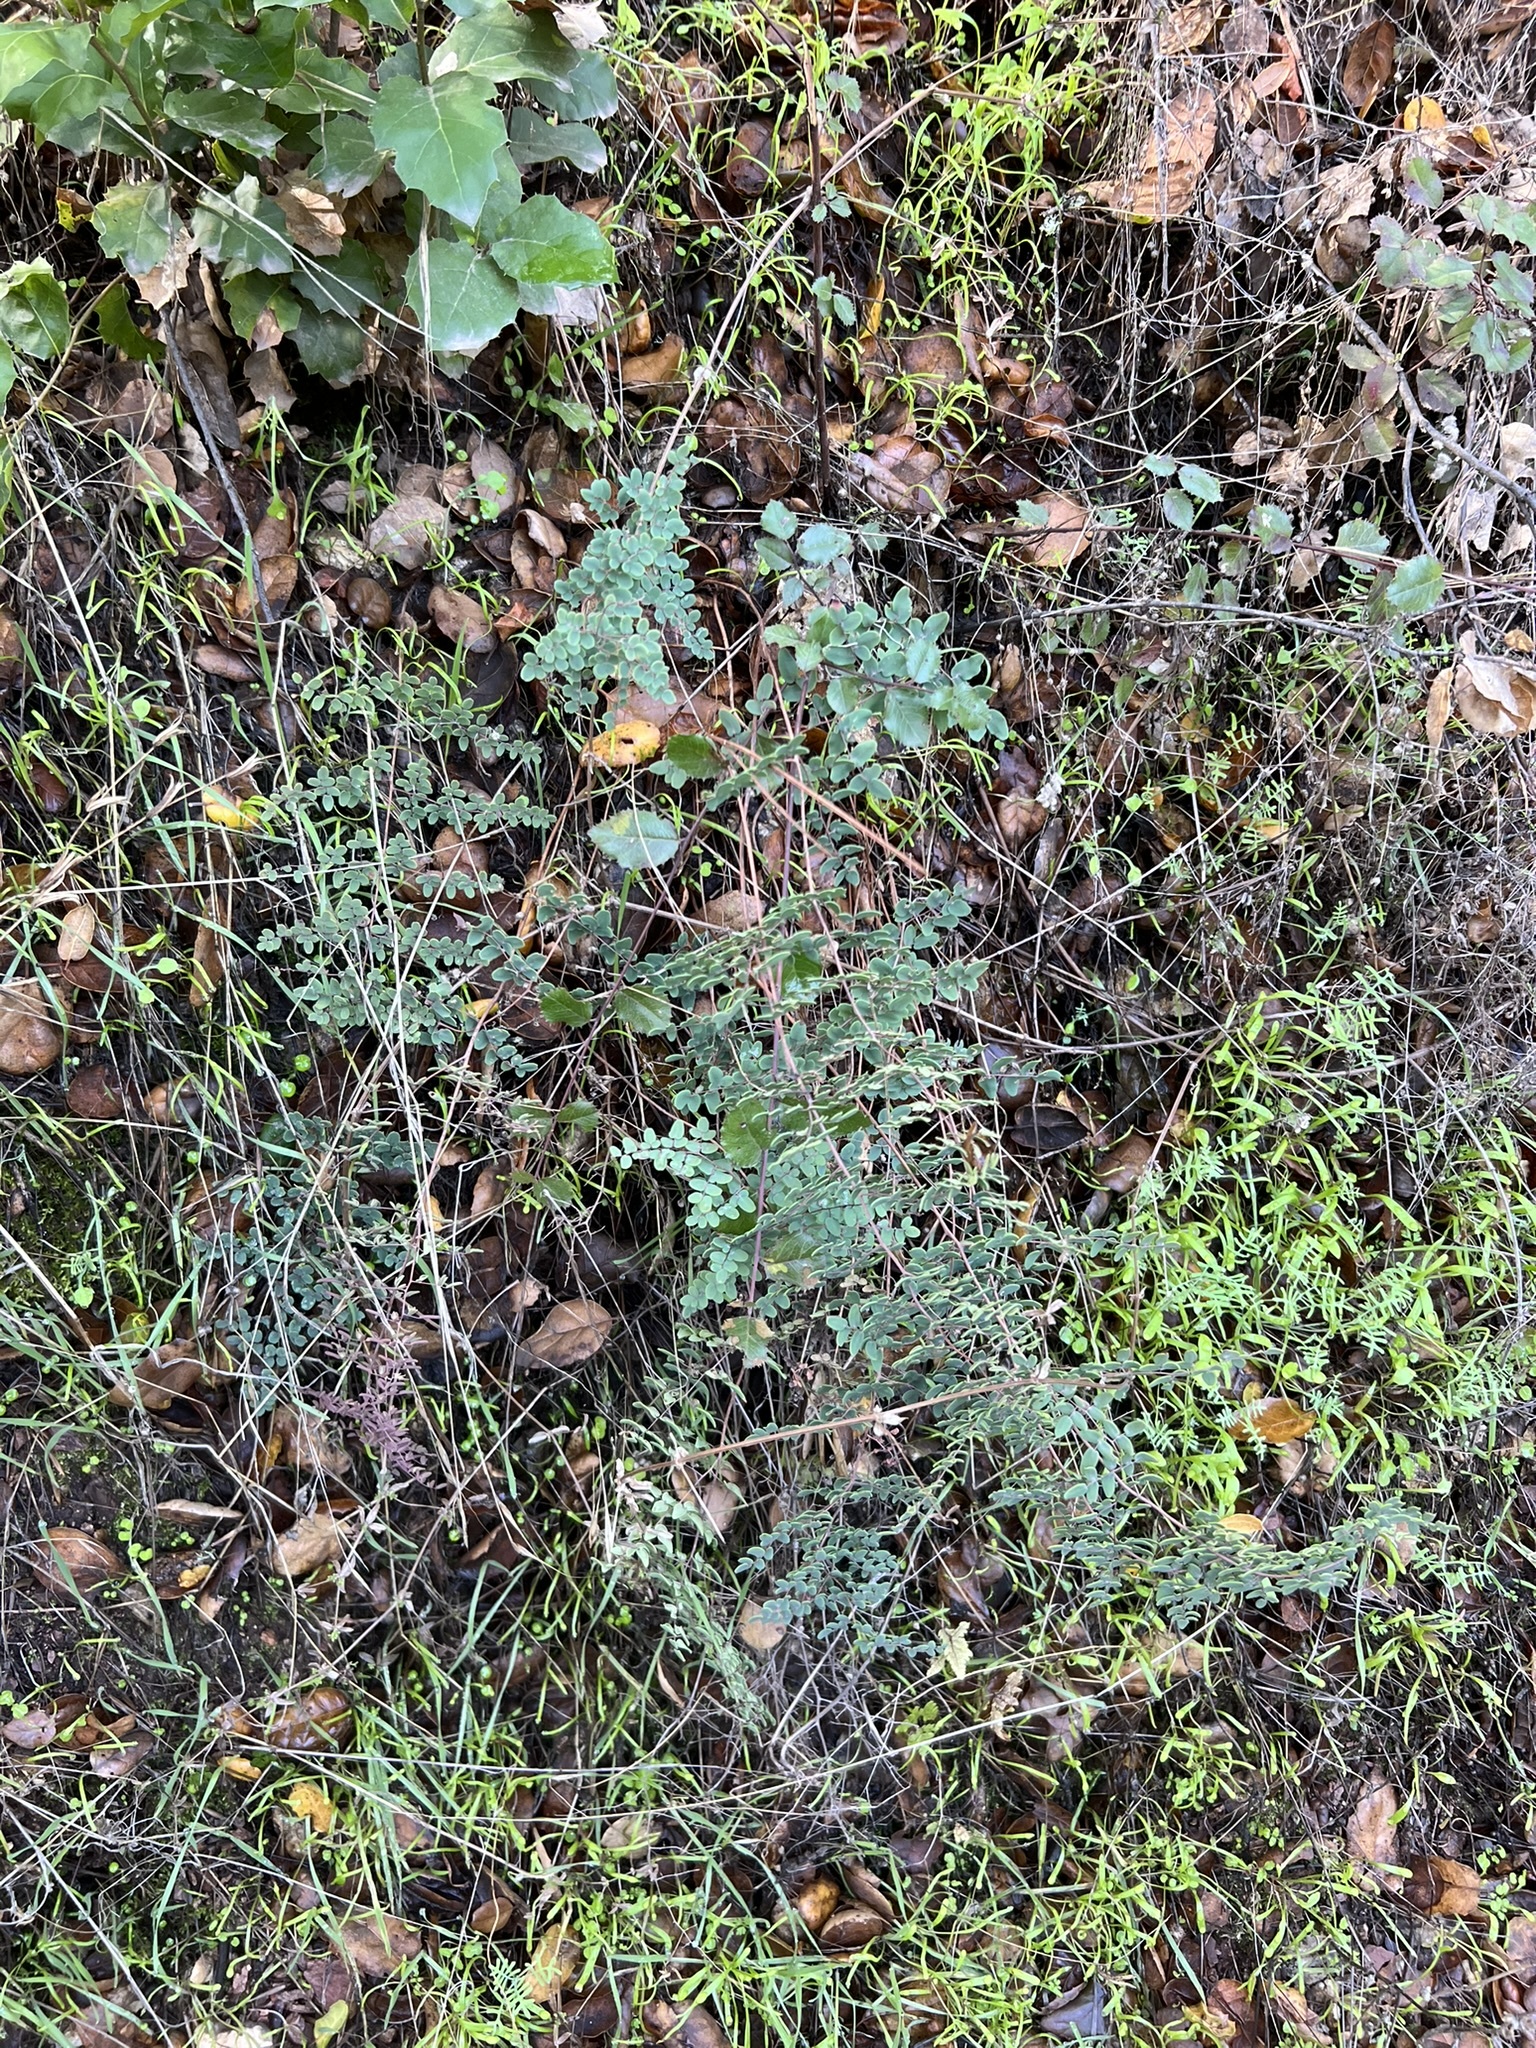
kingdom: Plantae
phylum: Tracheophyta
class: Polypodiopsida
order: Polypodiales
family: Pteridaceae
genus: Pellaea
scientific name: Pellaea andromedifolia
